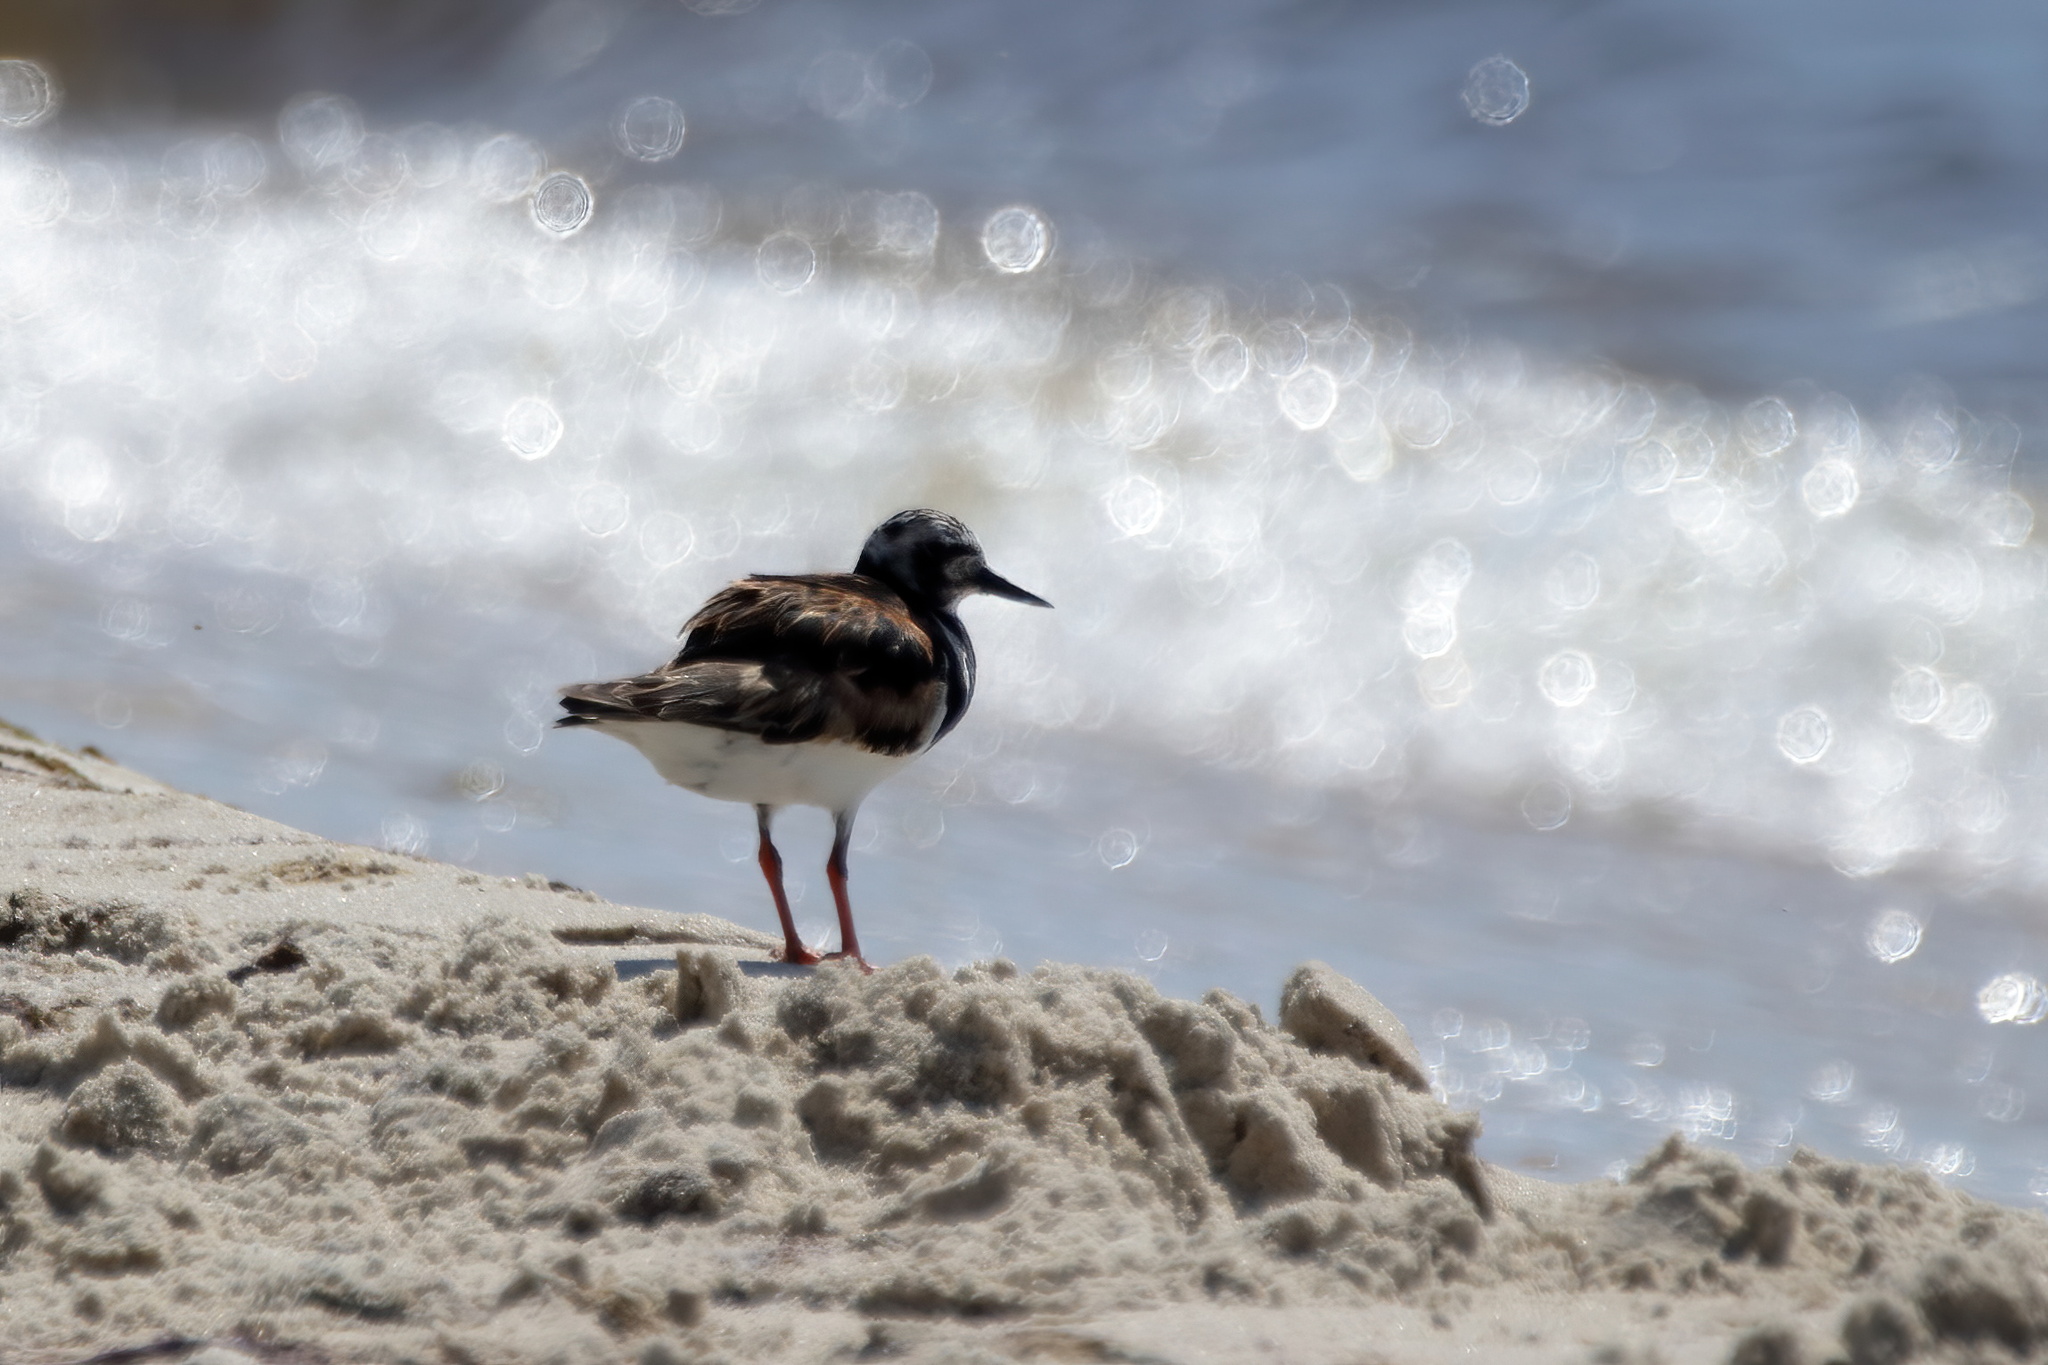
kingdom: Animalia
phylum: Chordata
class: Aves
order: Charadriiformes
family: Scolopacidae
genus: Arenaria
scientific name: Arenaria interpres
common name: Ruddy turnstone
